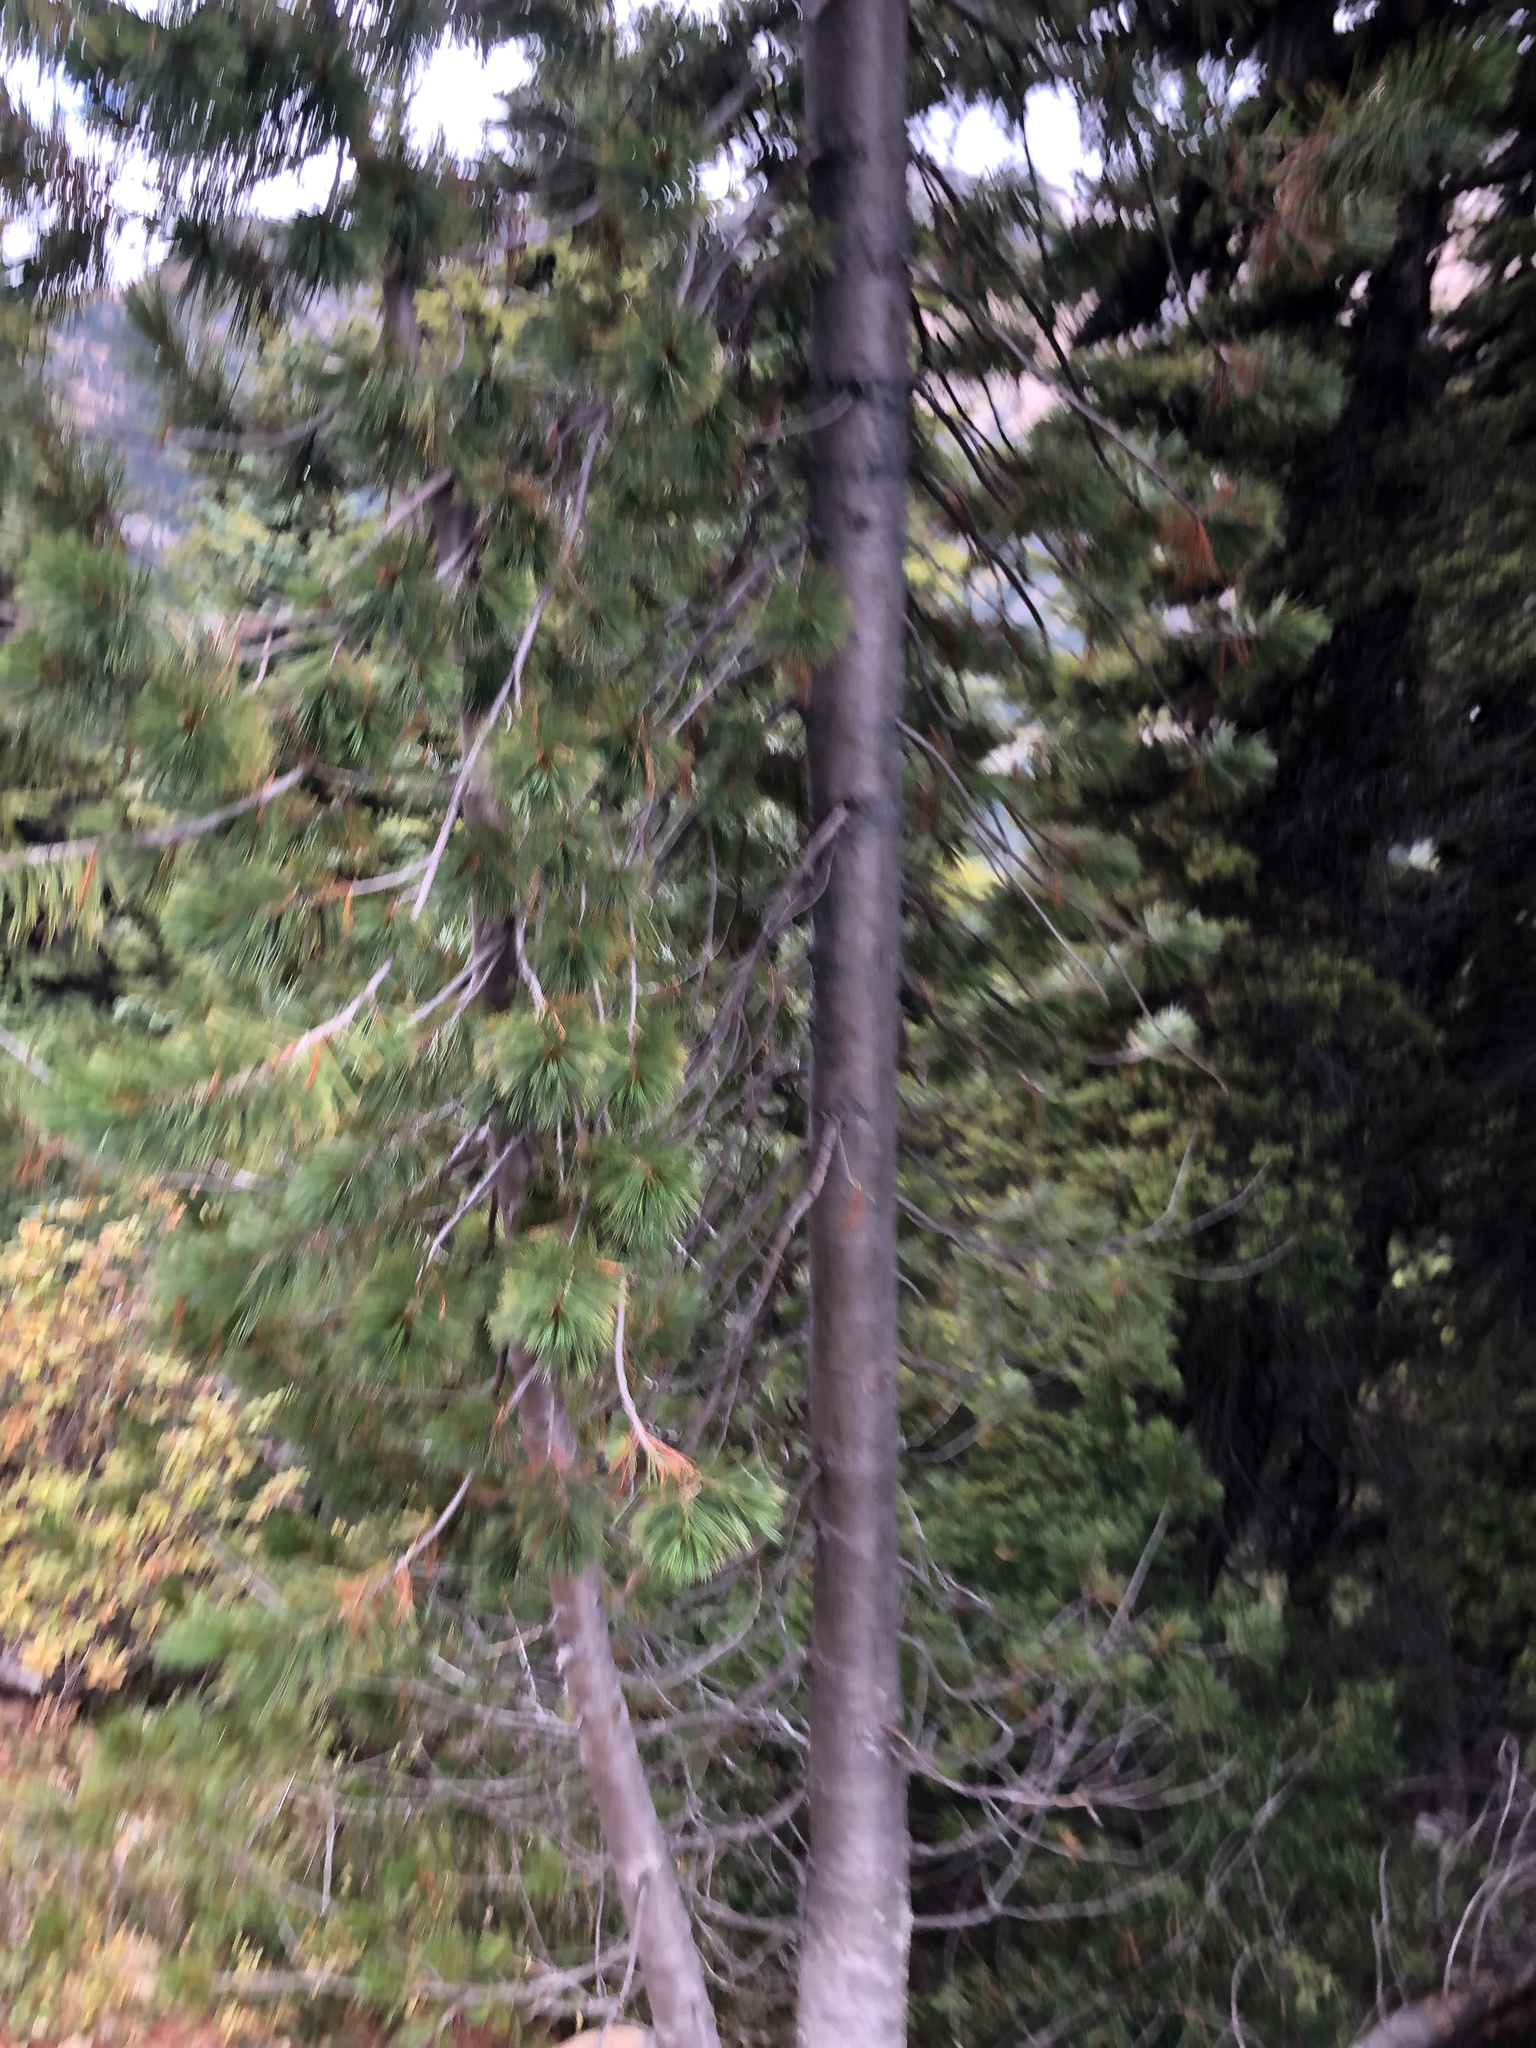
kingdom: Plantae
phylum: Tracheophyta
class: Pinopsida
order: Pinales
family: Pinaceae
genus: Pinus
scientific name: Pinus albicaulis
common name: Whitebark pine
